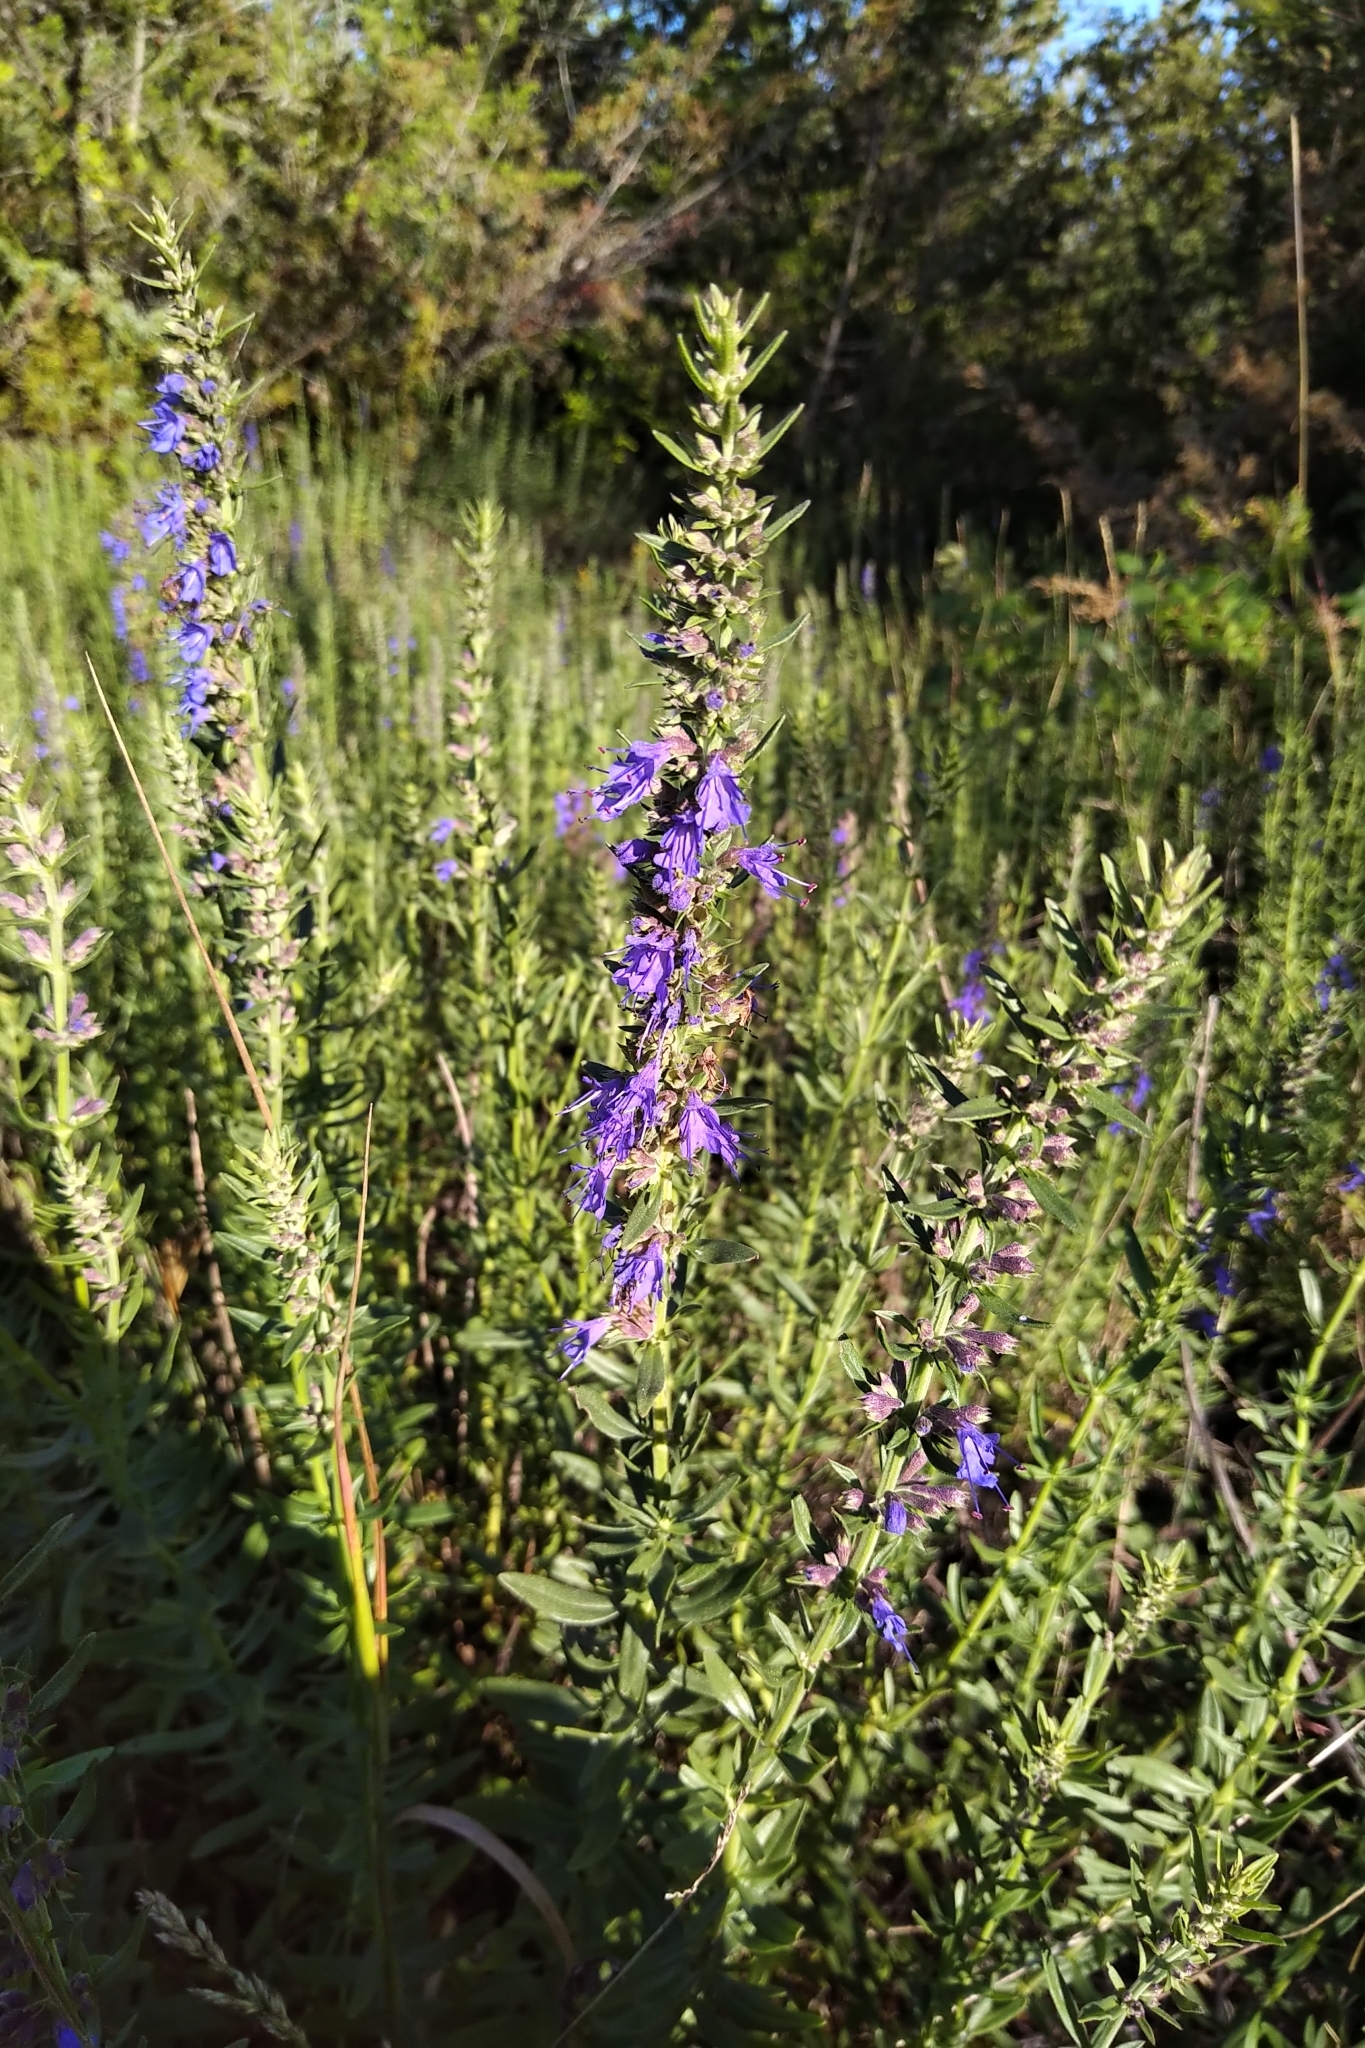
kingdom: Plantae
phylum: Tracheophyta
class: Magnoliopsida
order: Lamiales
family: Lamiaceae
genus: Hyssopus
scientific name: Hyssopus officinalis
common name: Hyssop
